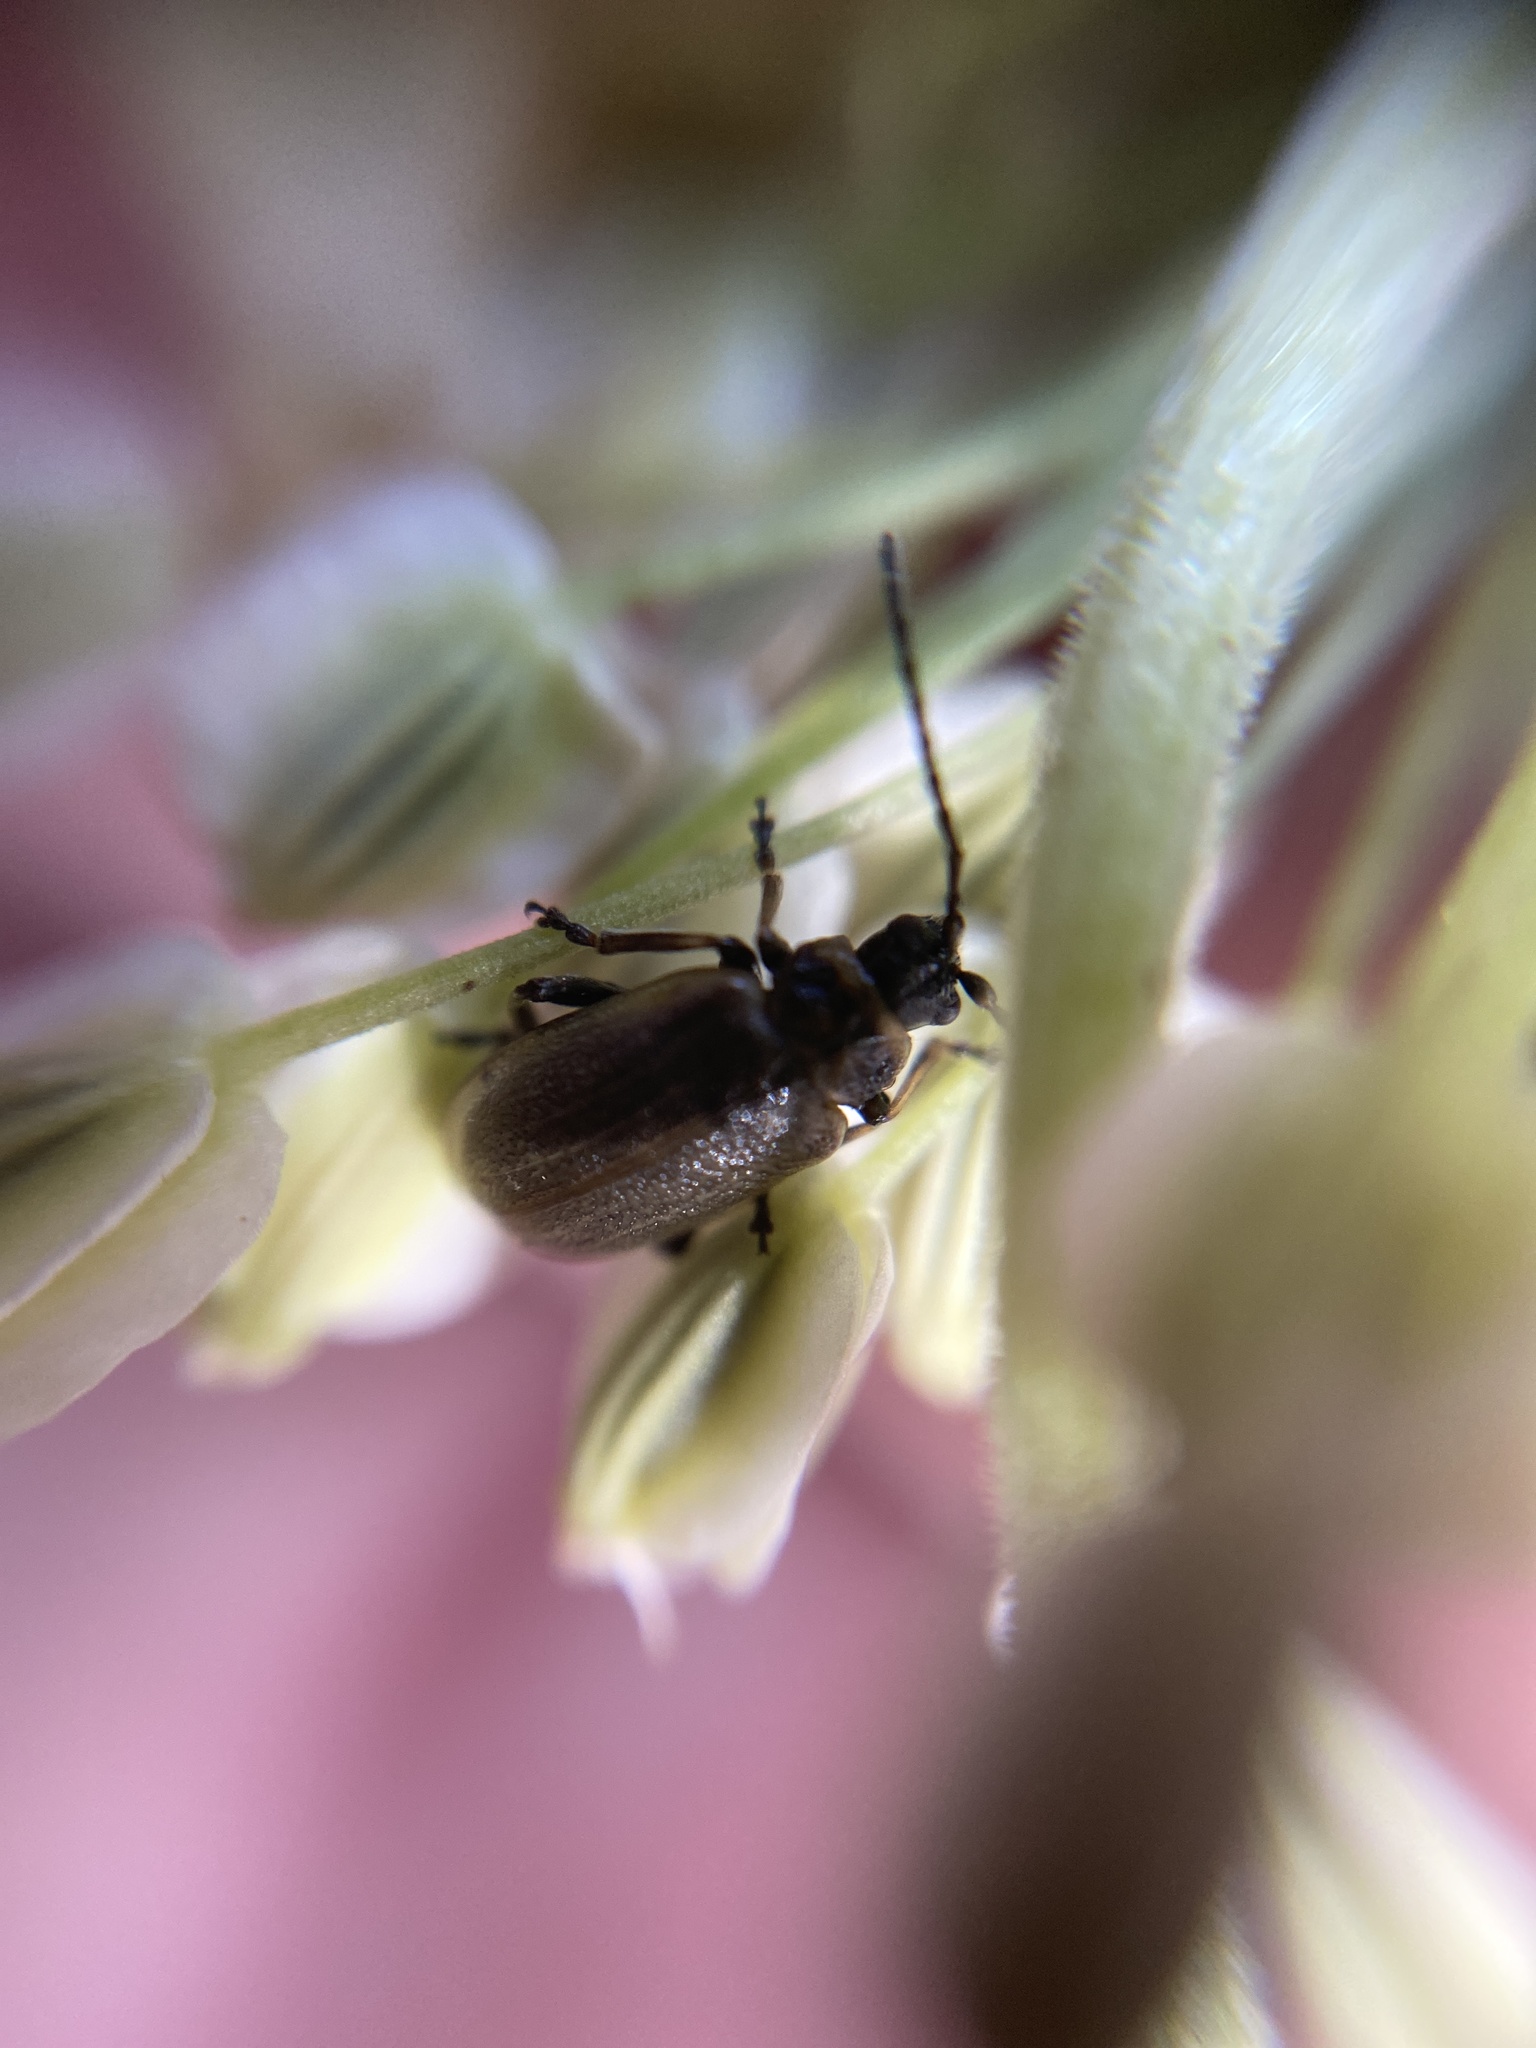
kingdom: Animalia
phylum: Arthropoda
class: Insecta
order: Coleoptera
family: Chrysomelidae
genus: Lochmaea
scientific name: Lochmaea caprea
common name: Willow leaf beetle
